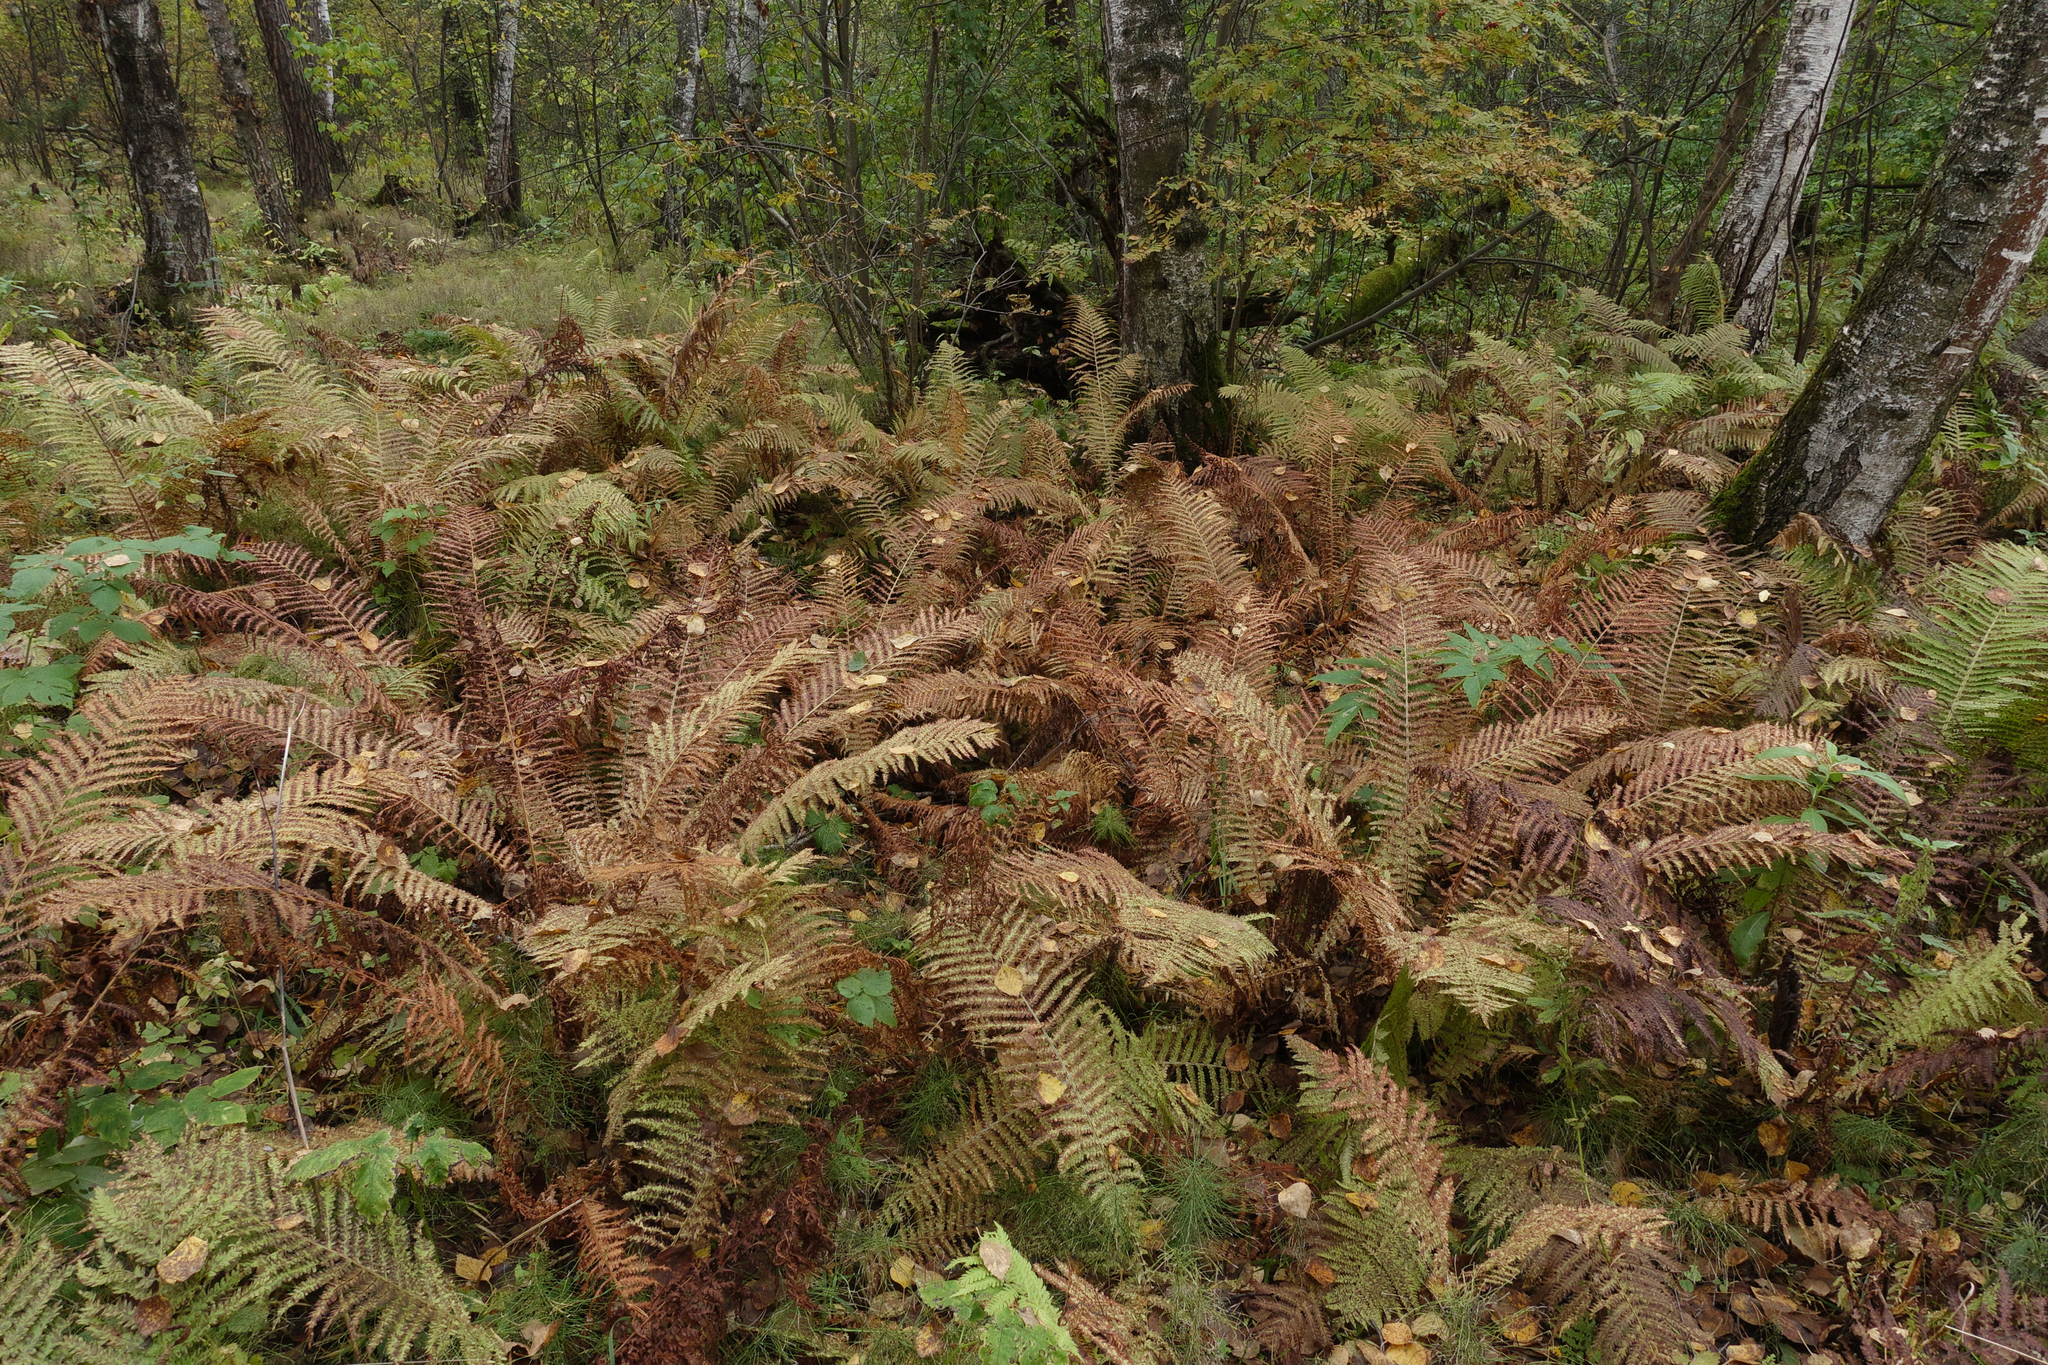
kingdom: Plantae
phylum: Tracheophyta
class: Polypodiopsida
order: Polypodiales
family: Onocleaceae
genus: Matteuccia
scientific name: Matteuccia struthiopteris
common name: Ostrich fern
